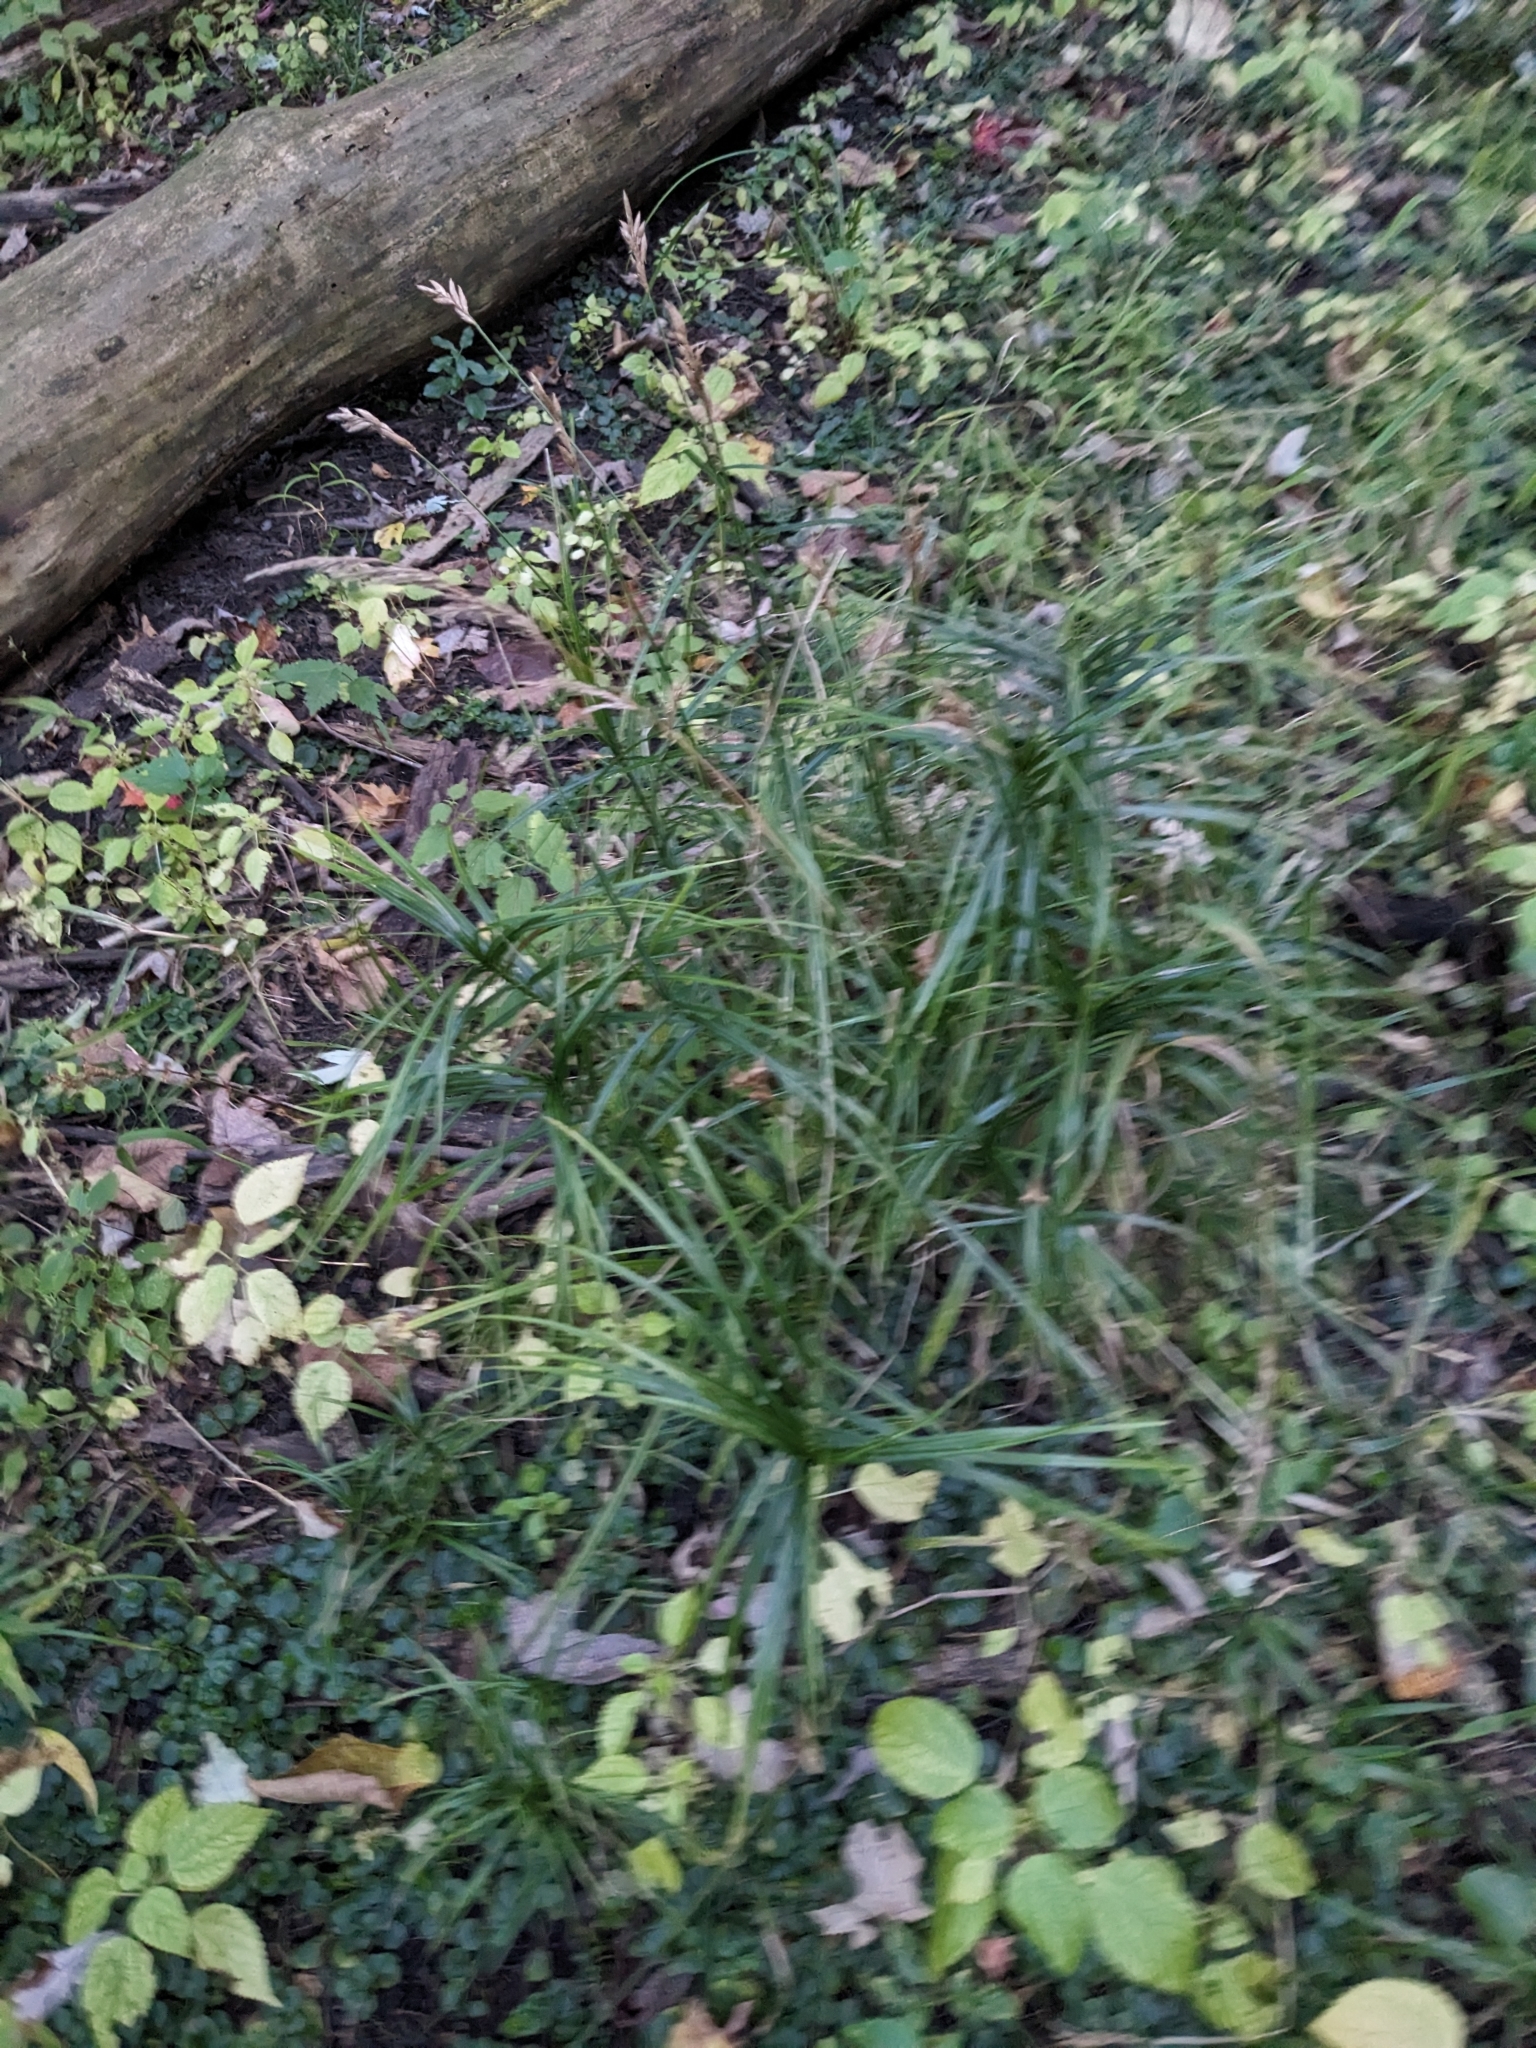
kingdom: Plantae
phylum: Tracheophyta
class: Liliopsida
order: Poales
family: Cyperaceae
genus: Carex
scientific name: Carex muskingumensis
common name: Muskingum sedge
